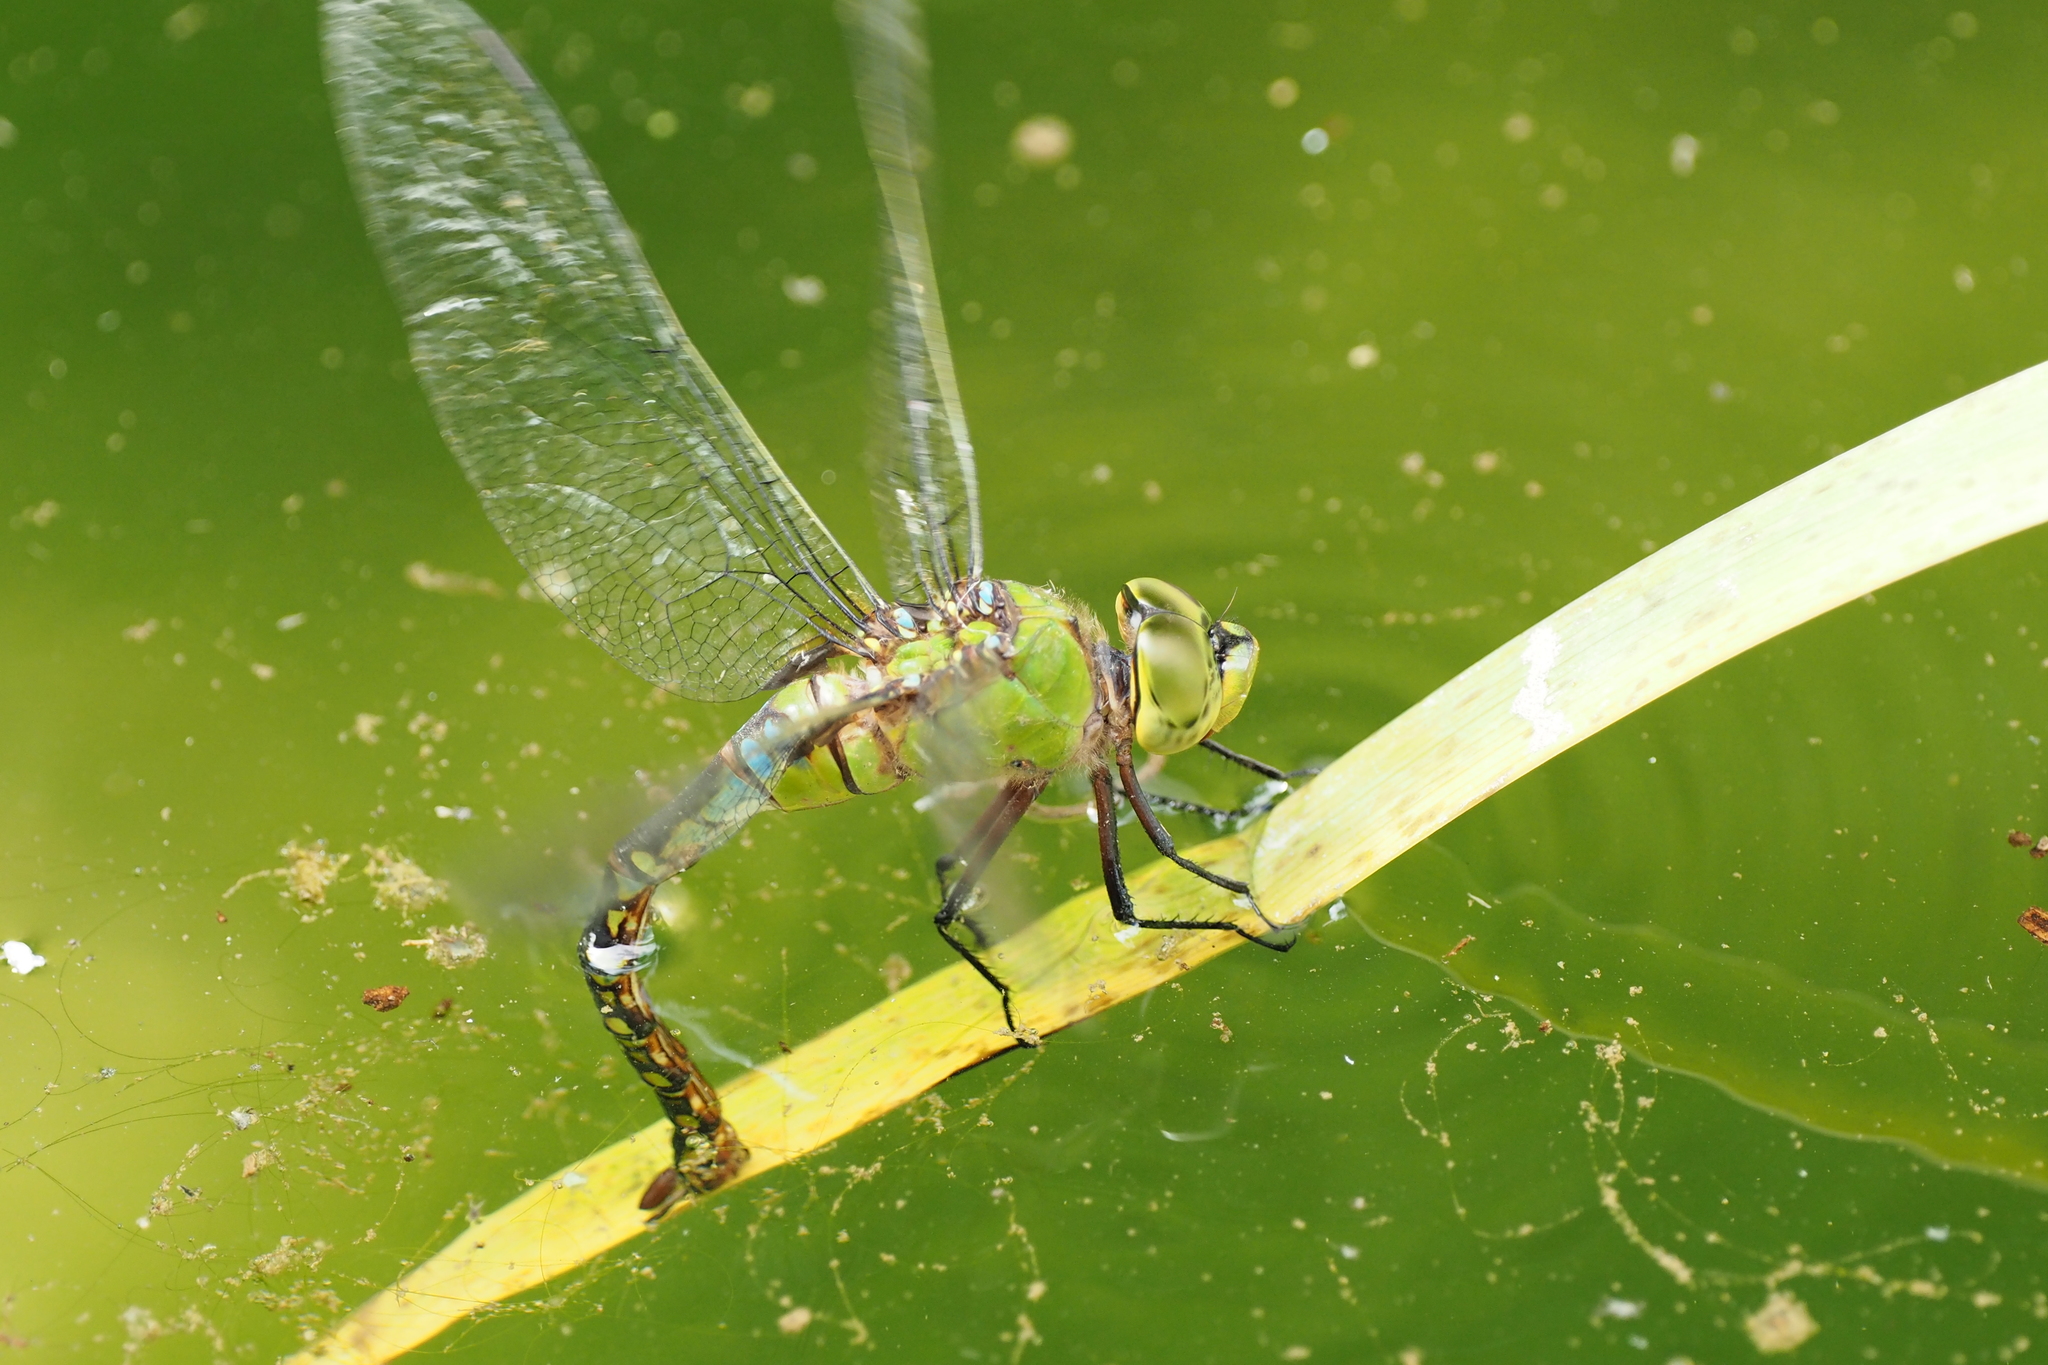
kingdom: Animalia
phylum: Arthropoda
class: Insecta
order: Odonata
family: Aeshnidae
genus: Anax
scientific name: Anax panybeus
